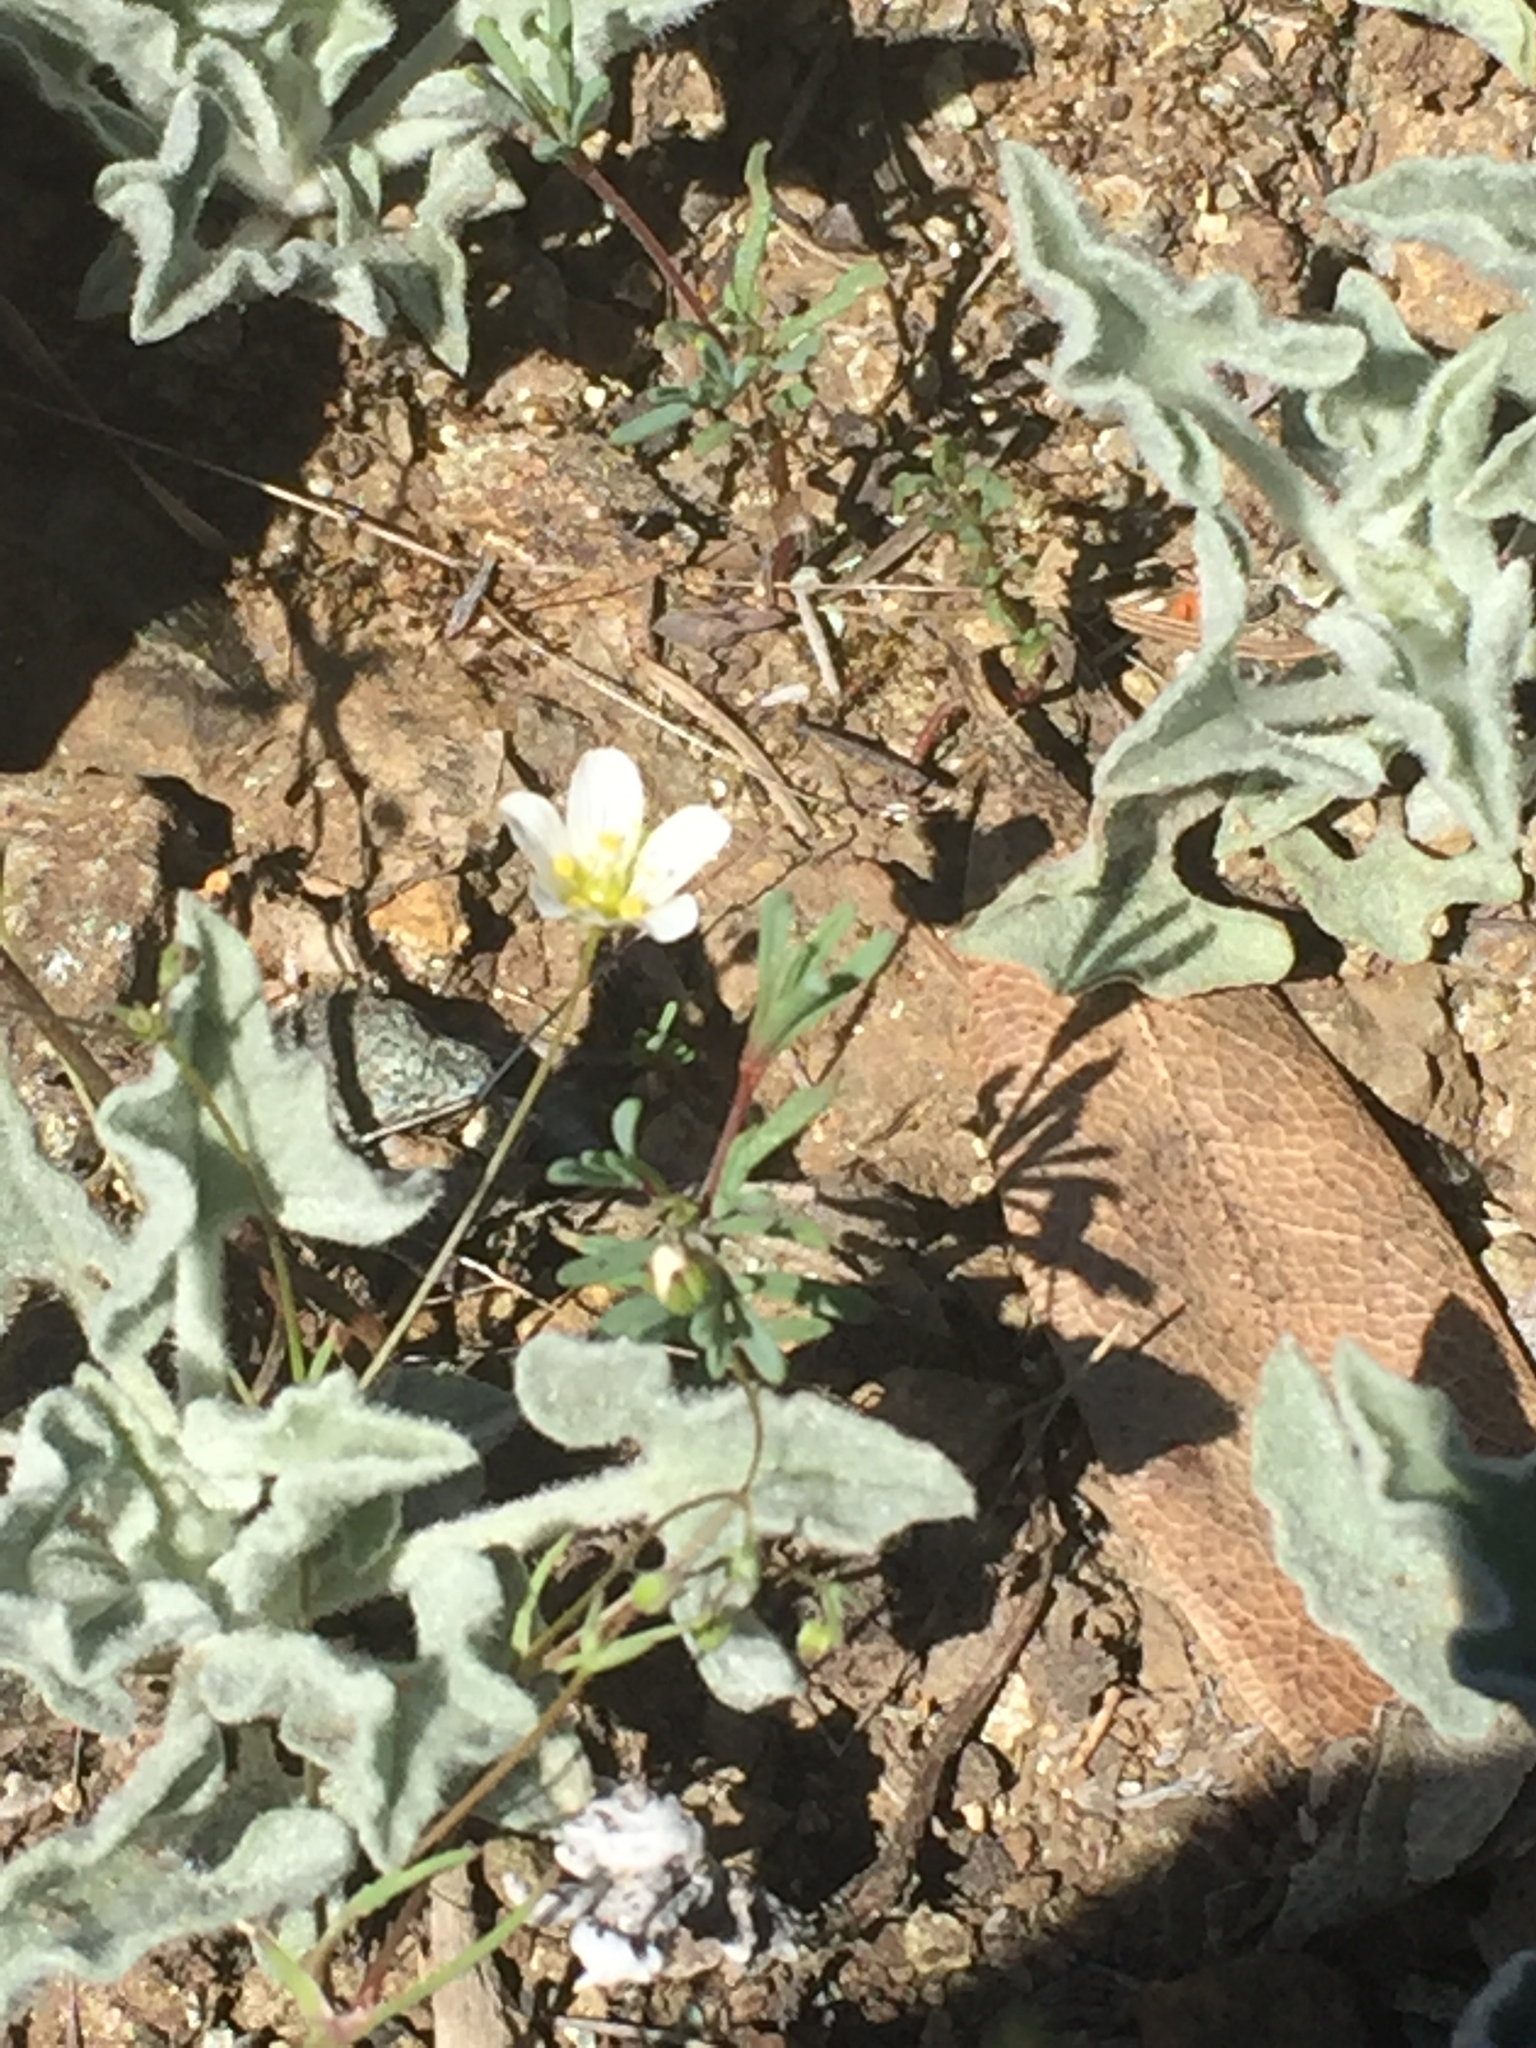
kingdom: Plantae
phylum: Tracheophyta
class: Magnoliopsida
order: Caryophyllales
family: Caryophyllaceae
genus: Sabulina
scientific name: Sabulina douglasii
